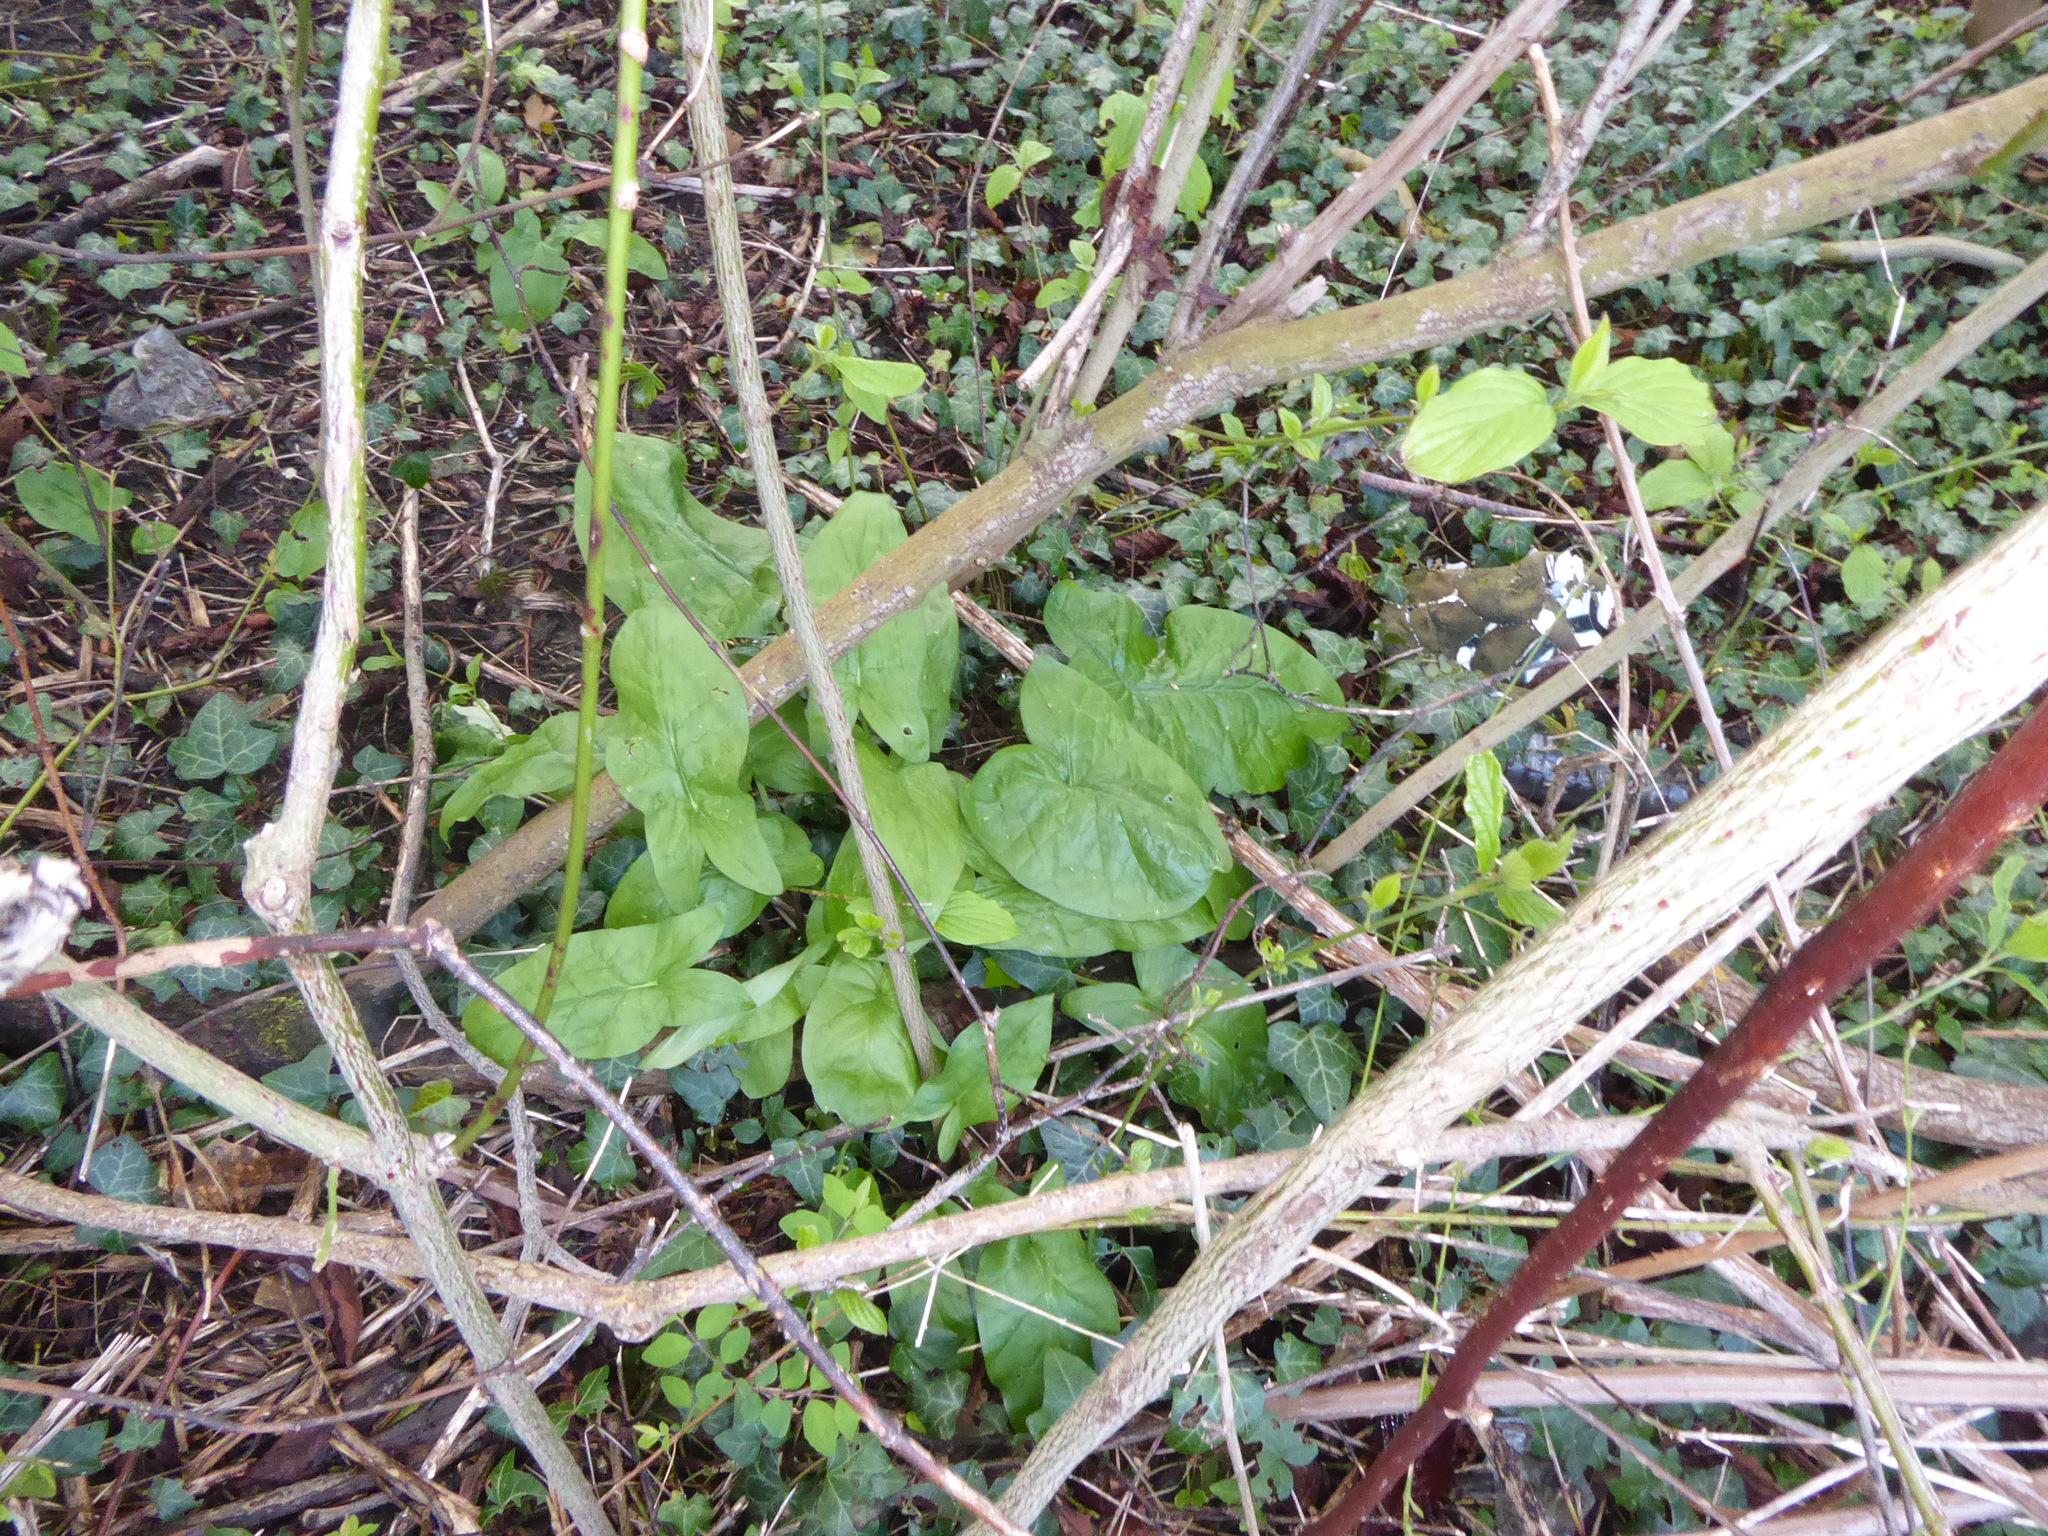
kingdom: Plantae
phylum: Tracheophyta
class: Liliopsida
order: Alismatales
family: Araceae
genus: Arum
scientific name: Arum maculatum
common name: Lords-and-ladies
